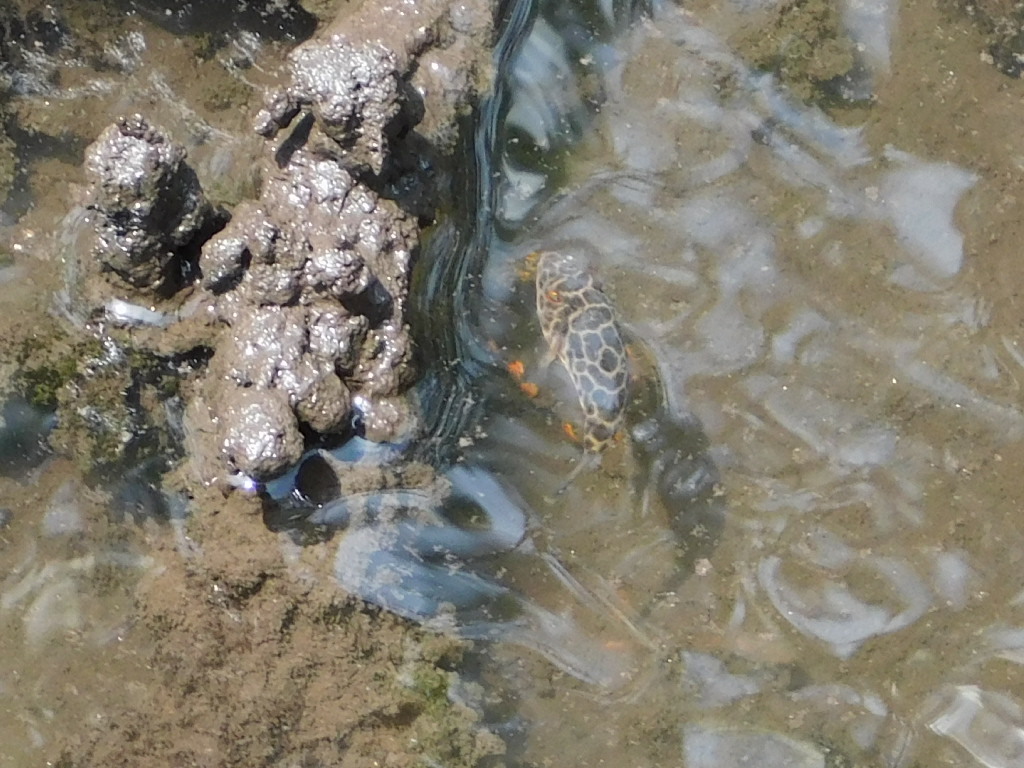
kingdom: Animalia
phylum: Chordata
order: Tetraodontiformes
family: Tetraodontidae
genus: Sphoeroides
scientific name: Sphoeroides testudineus
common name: Checkered puffer
